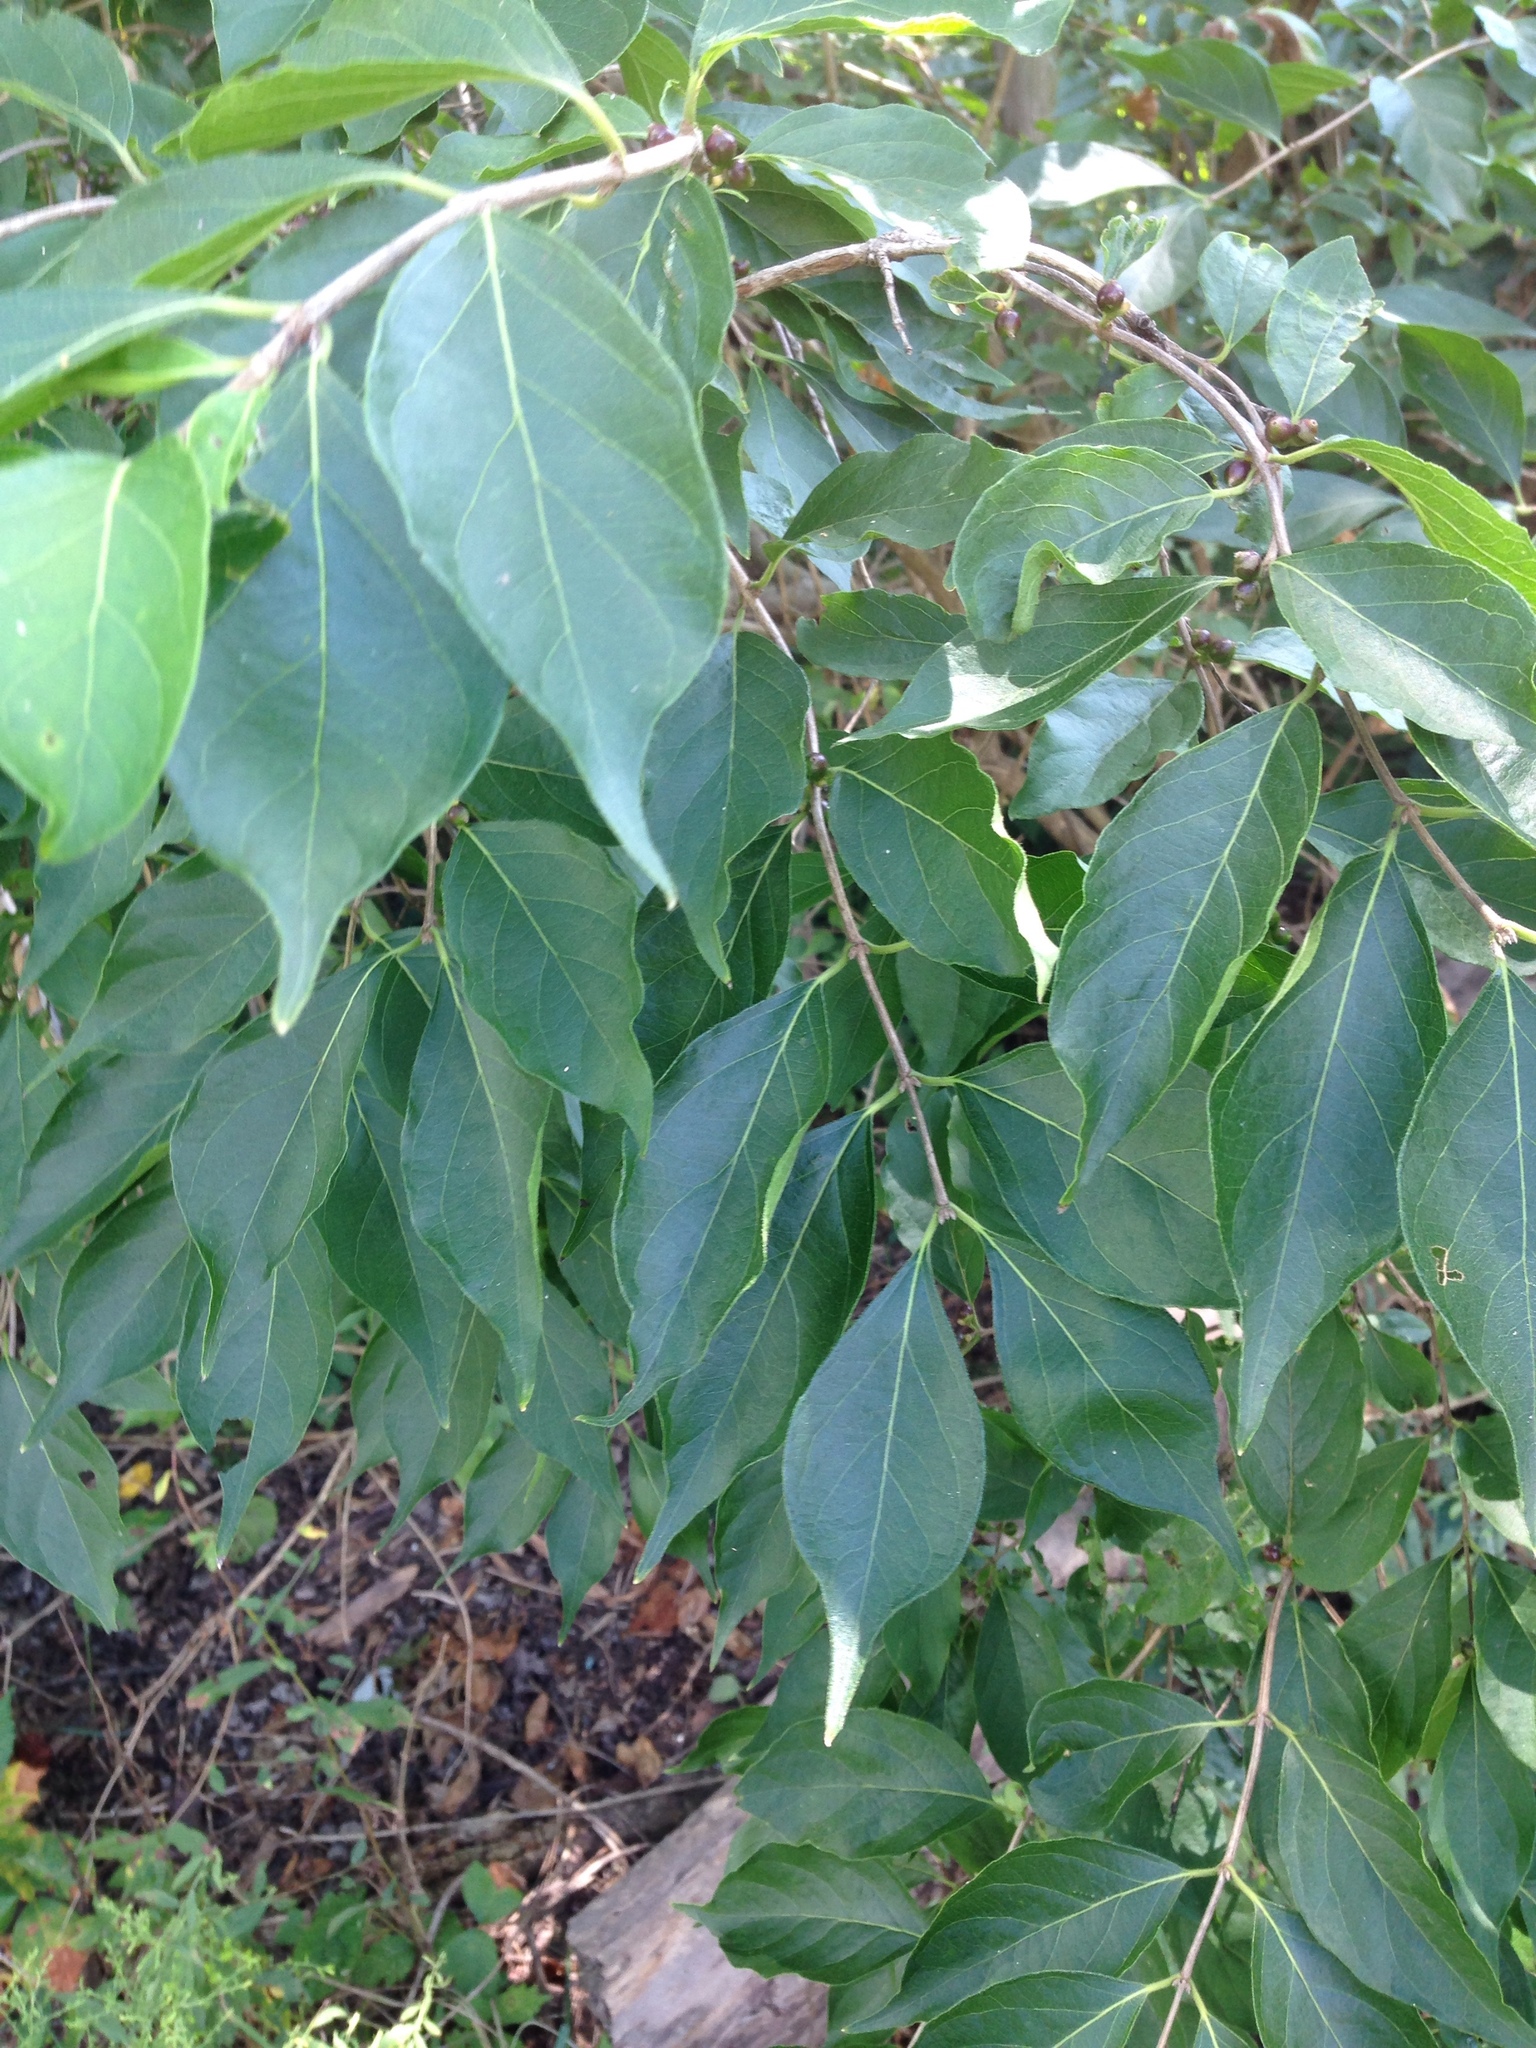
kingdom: Plantae
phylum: Tracheophyta
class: Magnoliopsida
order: Dipsacales
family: Caprifoliaceae
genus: Lonicera
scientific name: Lonicera maackii
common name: Amur honeysuckle
